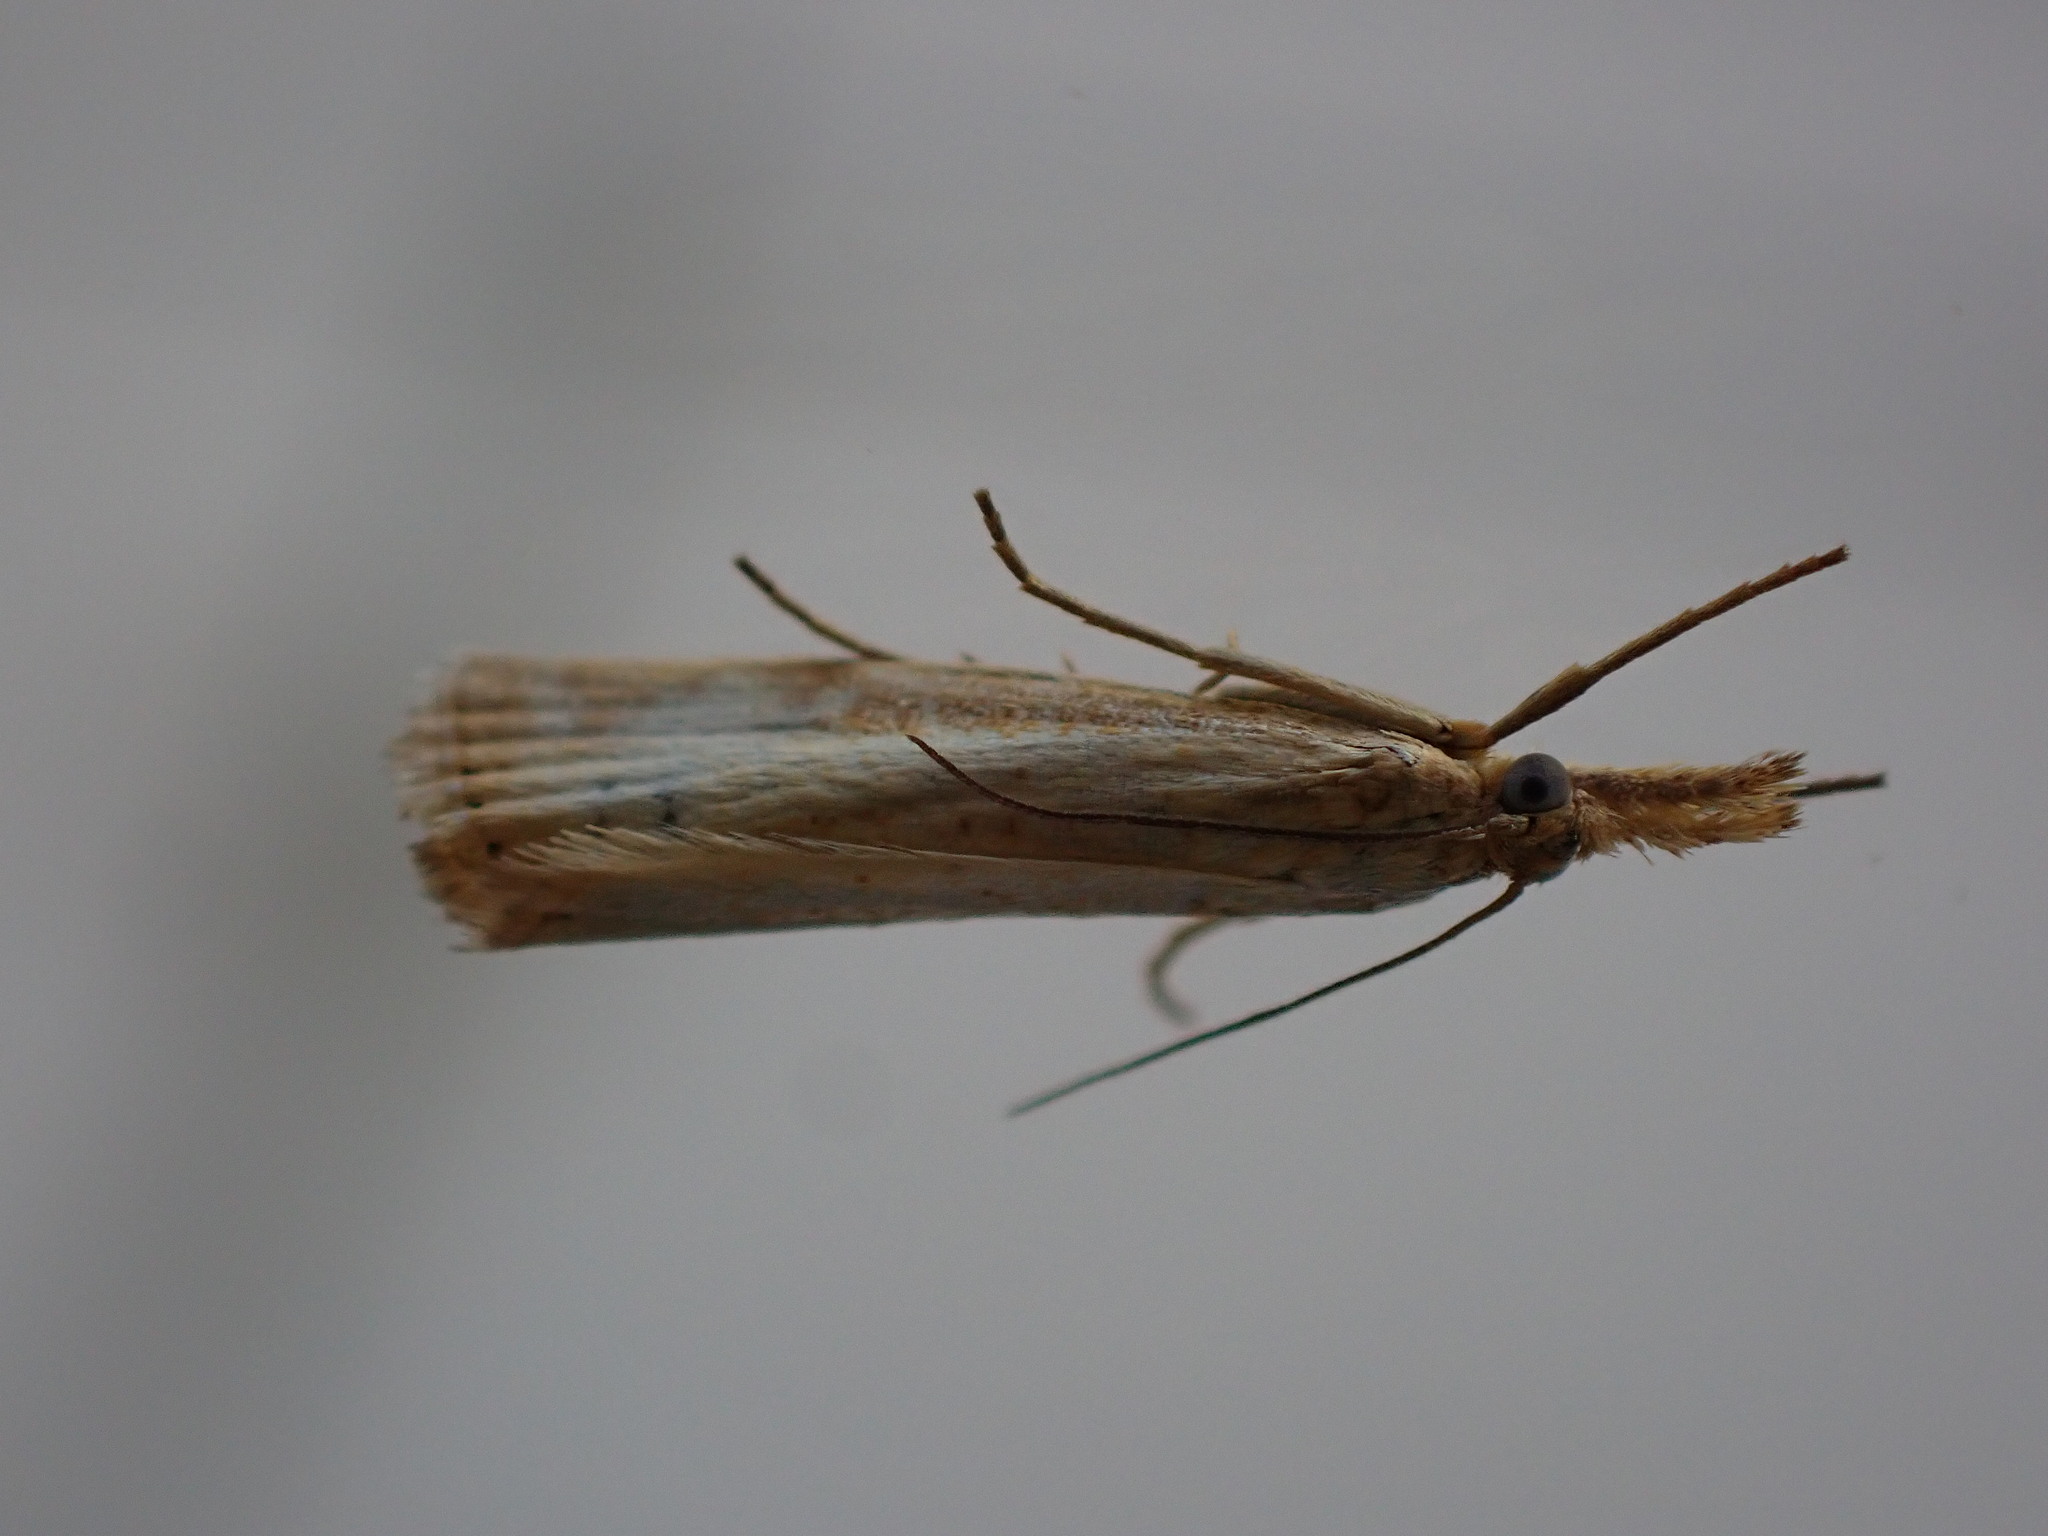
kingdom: Animalia
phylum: Arthropoda
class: Insecta
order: Lepidoptera
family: Crambidae
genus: Agriphila
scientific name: Agriphila straminella
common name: Straw grass-veneer
